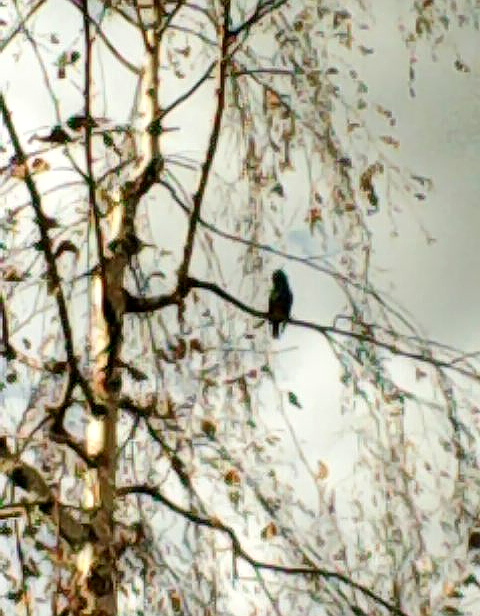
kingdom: Animalia
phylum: Chordata
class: Aves
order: Passeriformes
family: Sturnidae
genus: Sturnus
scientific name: Sturnus vulgaris
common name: Common starling
